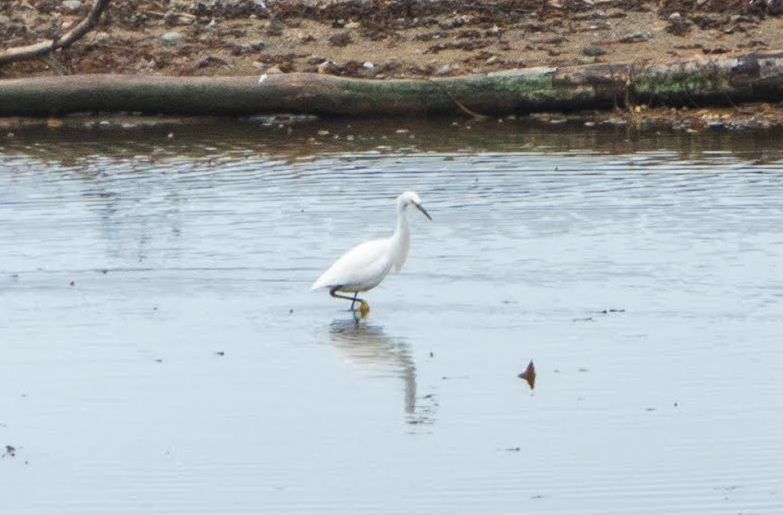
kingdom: Animalia
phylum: Chordata
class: Aves
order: Pelecaniformes
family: Ardeidae
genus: Egretta
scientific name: Egretta thula
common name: Snowy egret
